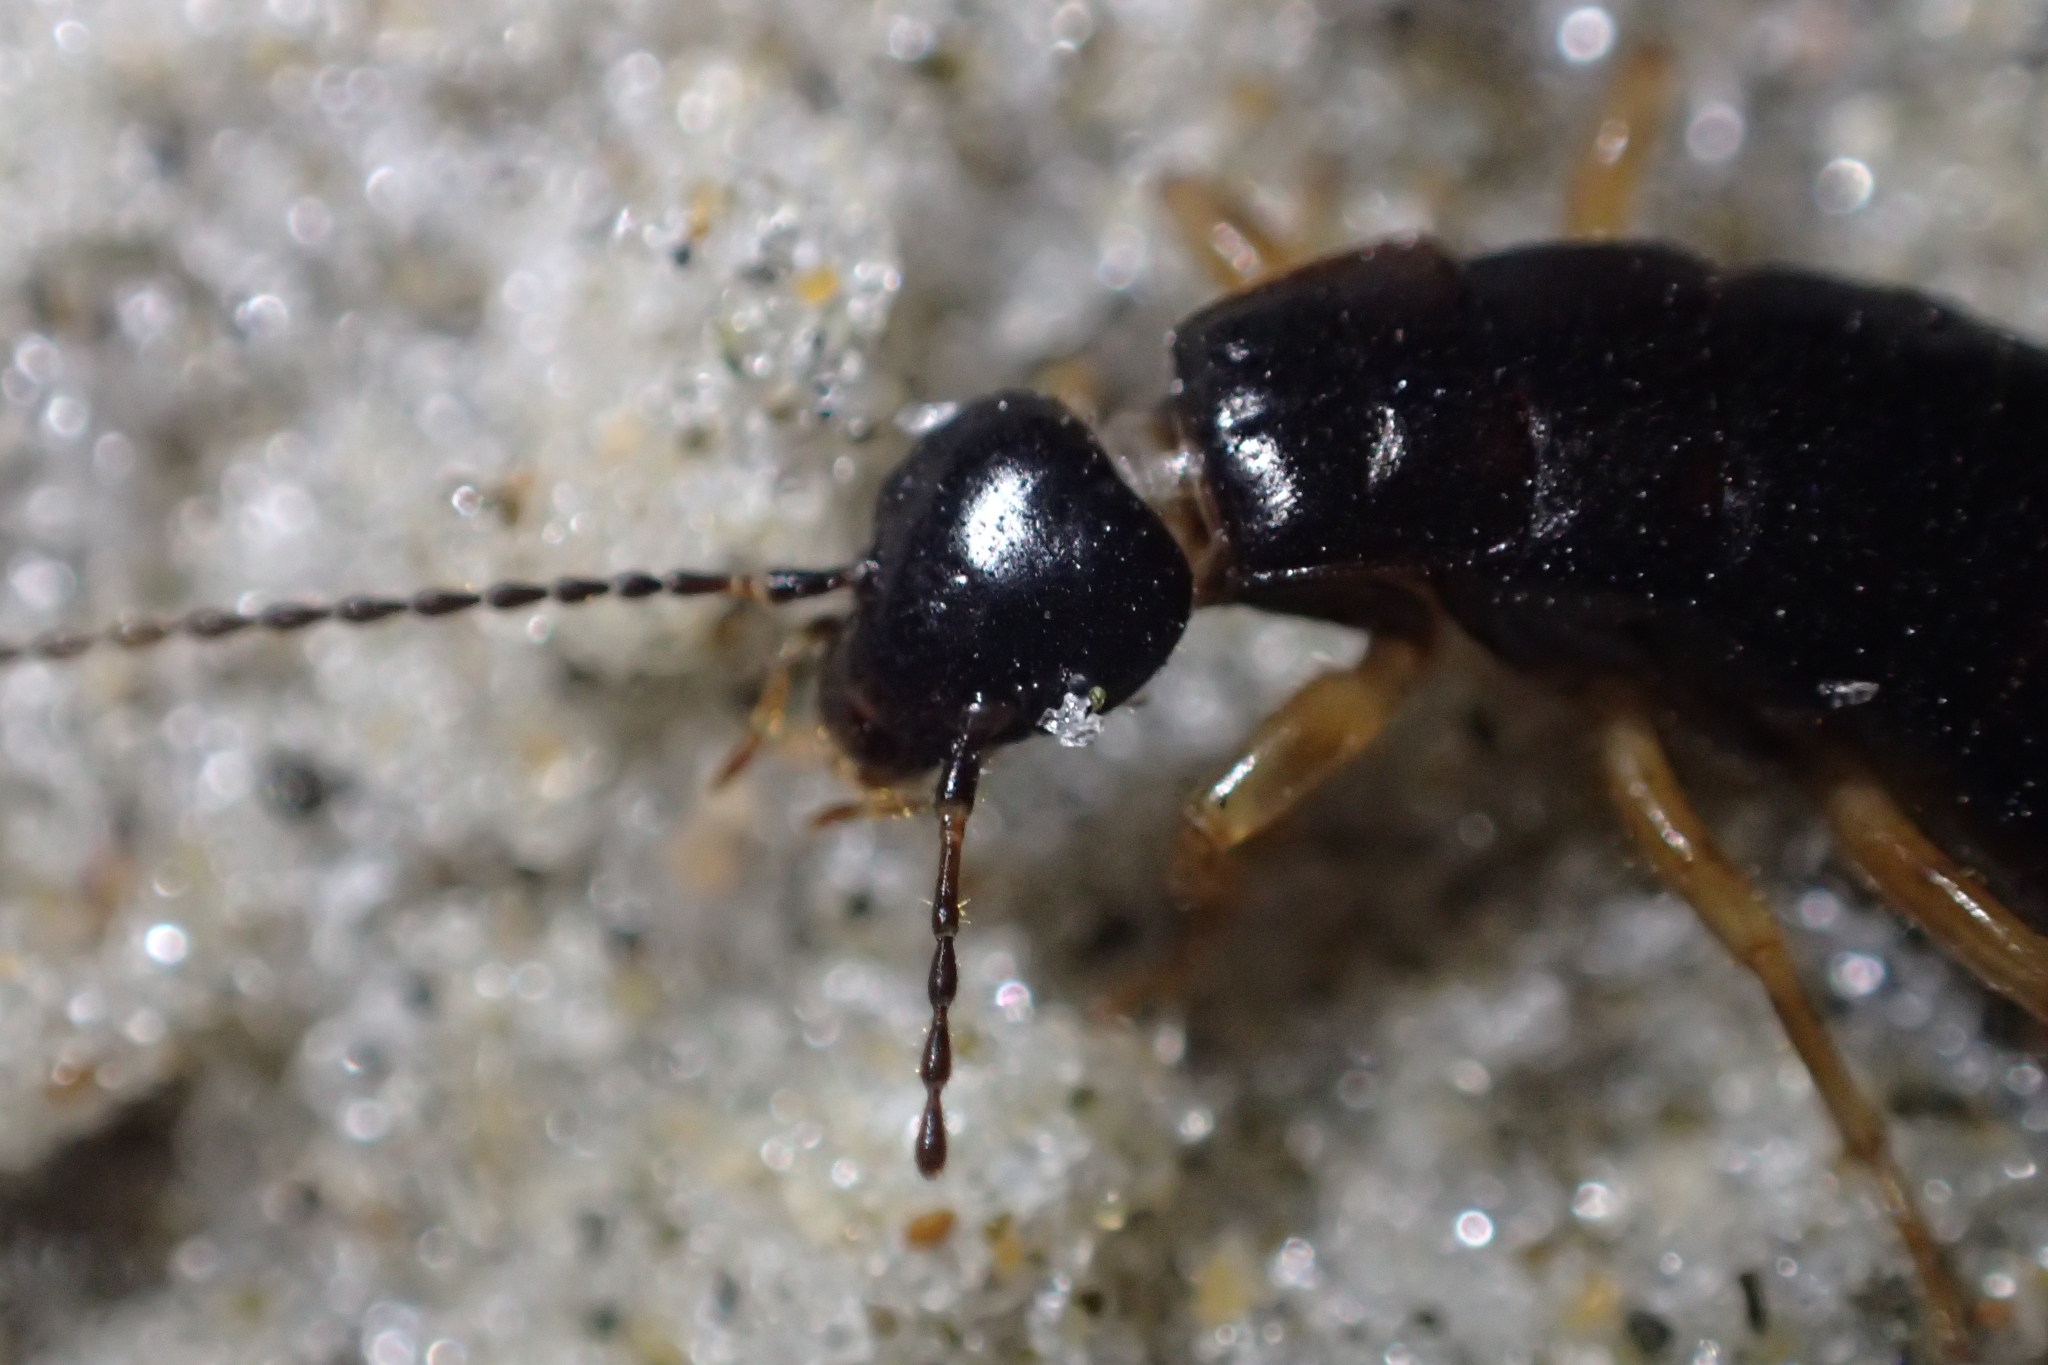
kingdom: Animalia
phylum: Arthropoda
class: Insecta
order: Dermaptera
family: Anisolabididae
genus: Anisolabis
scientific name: Anisolabis littorea
